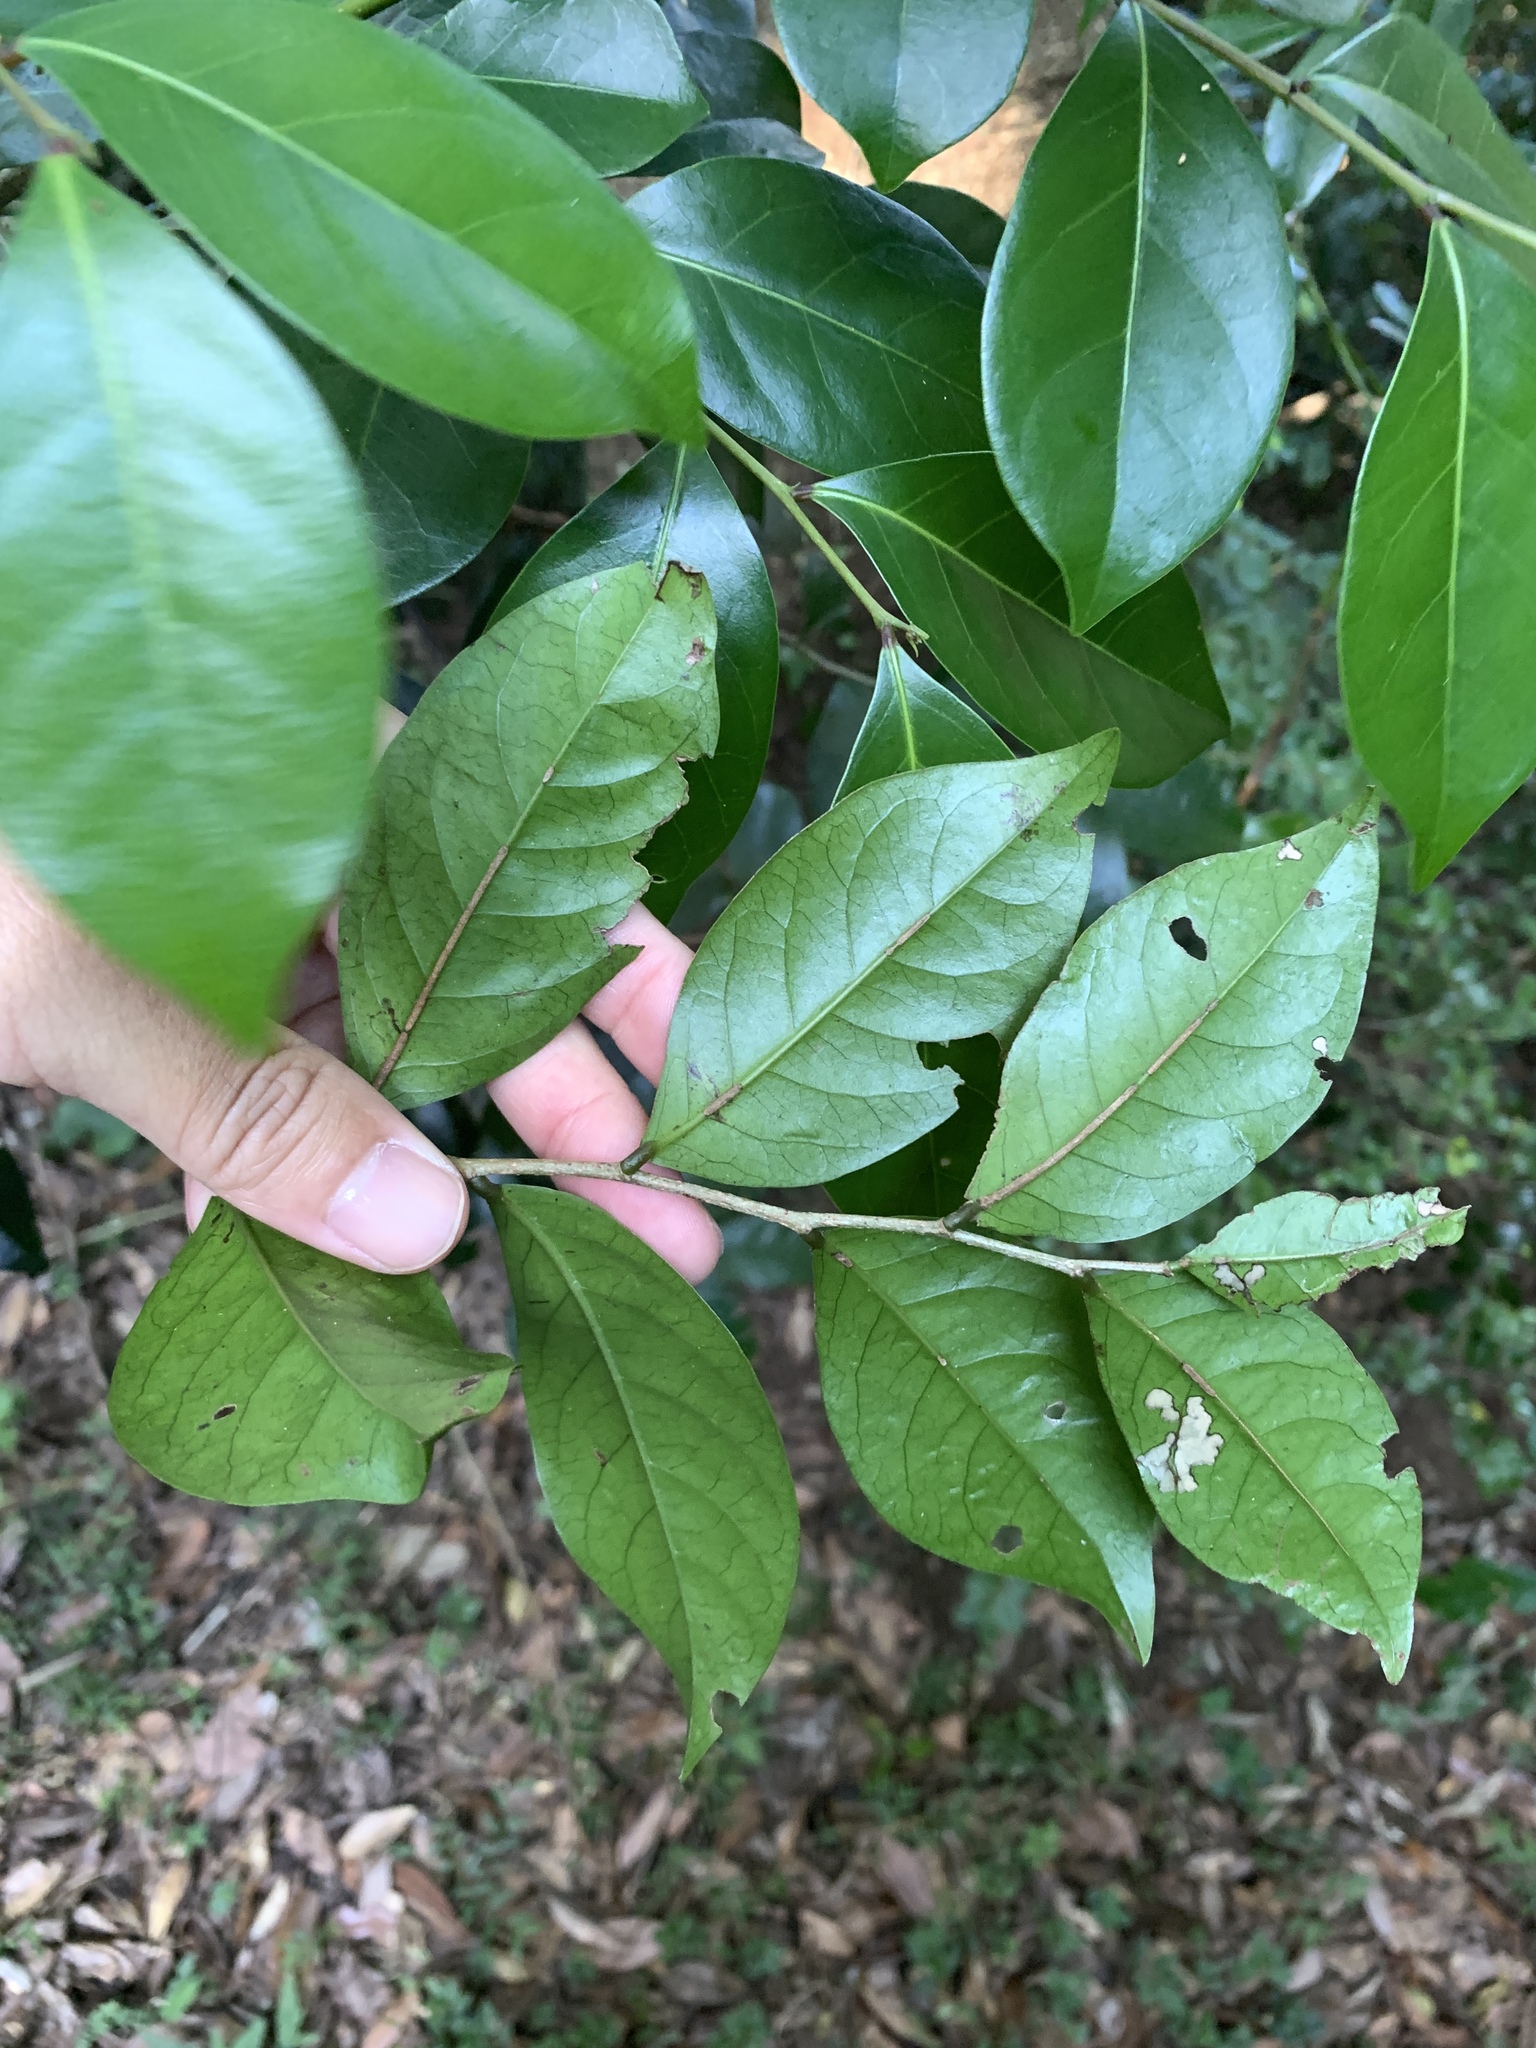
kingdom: Plantae
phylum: Tracheophyta
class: Magnoliopsida
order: Malpighiales
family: Phyllanthaceae
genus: Glochidion
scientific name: Glochidion rubrum
